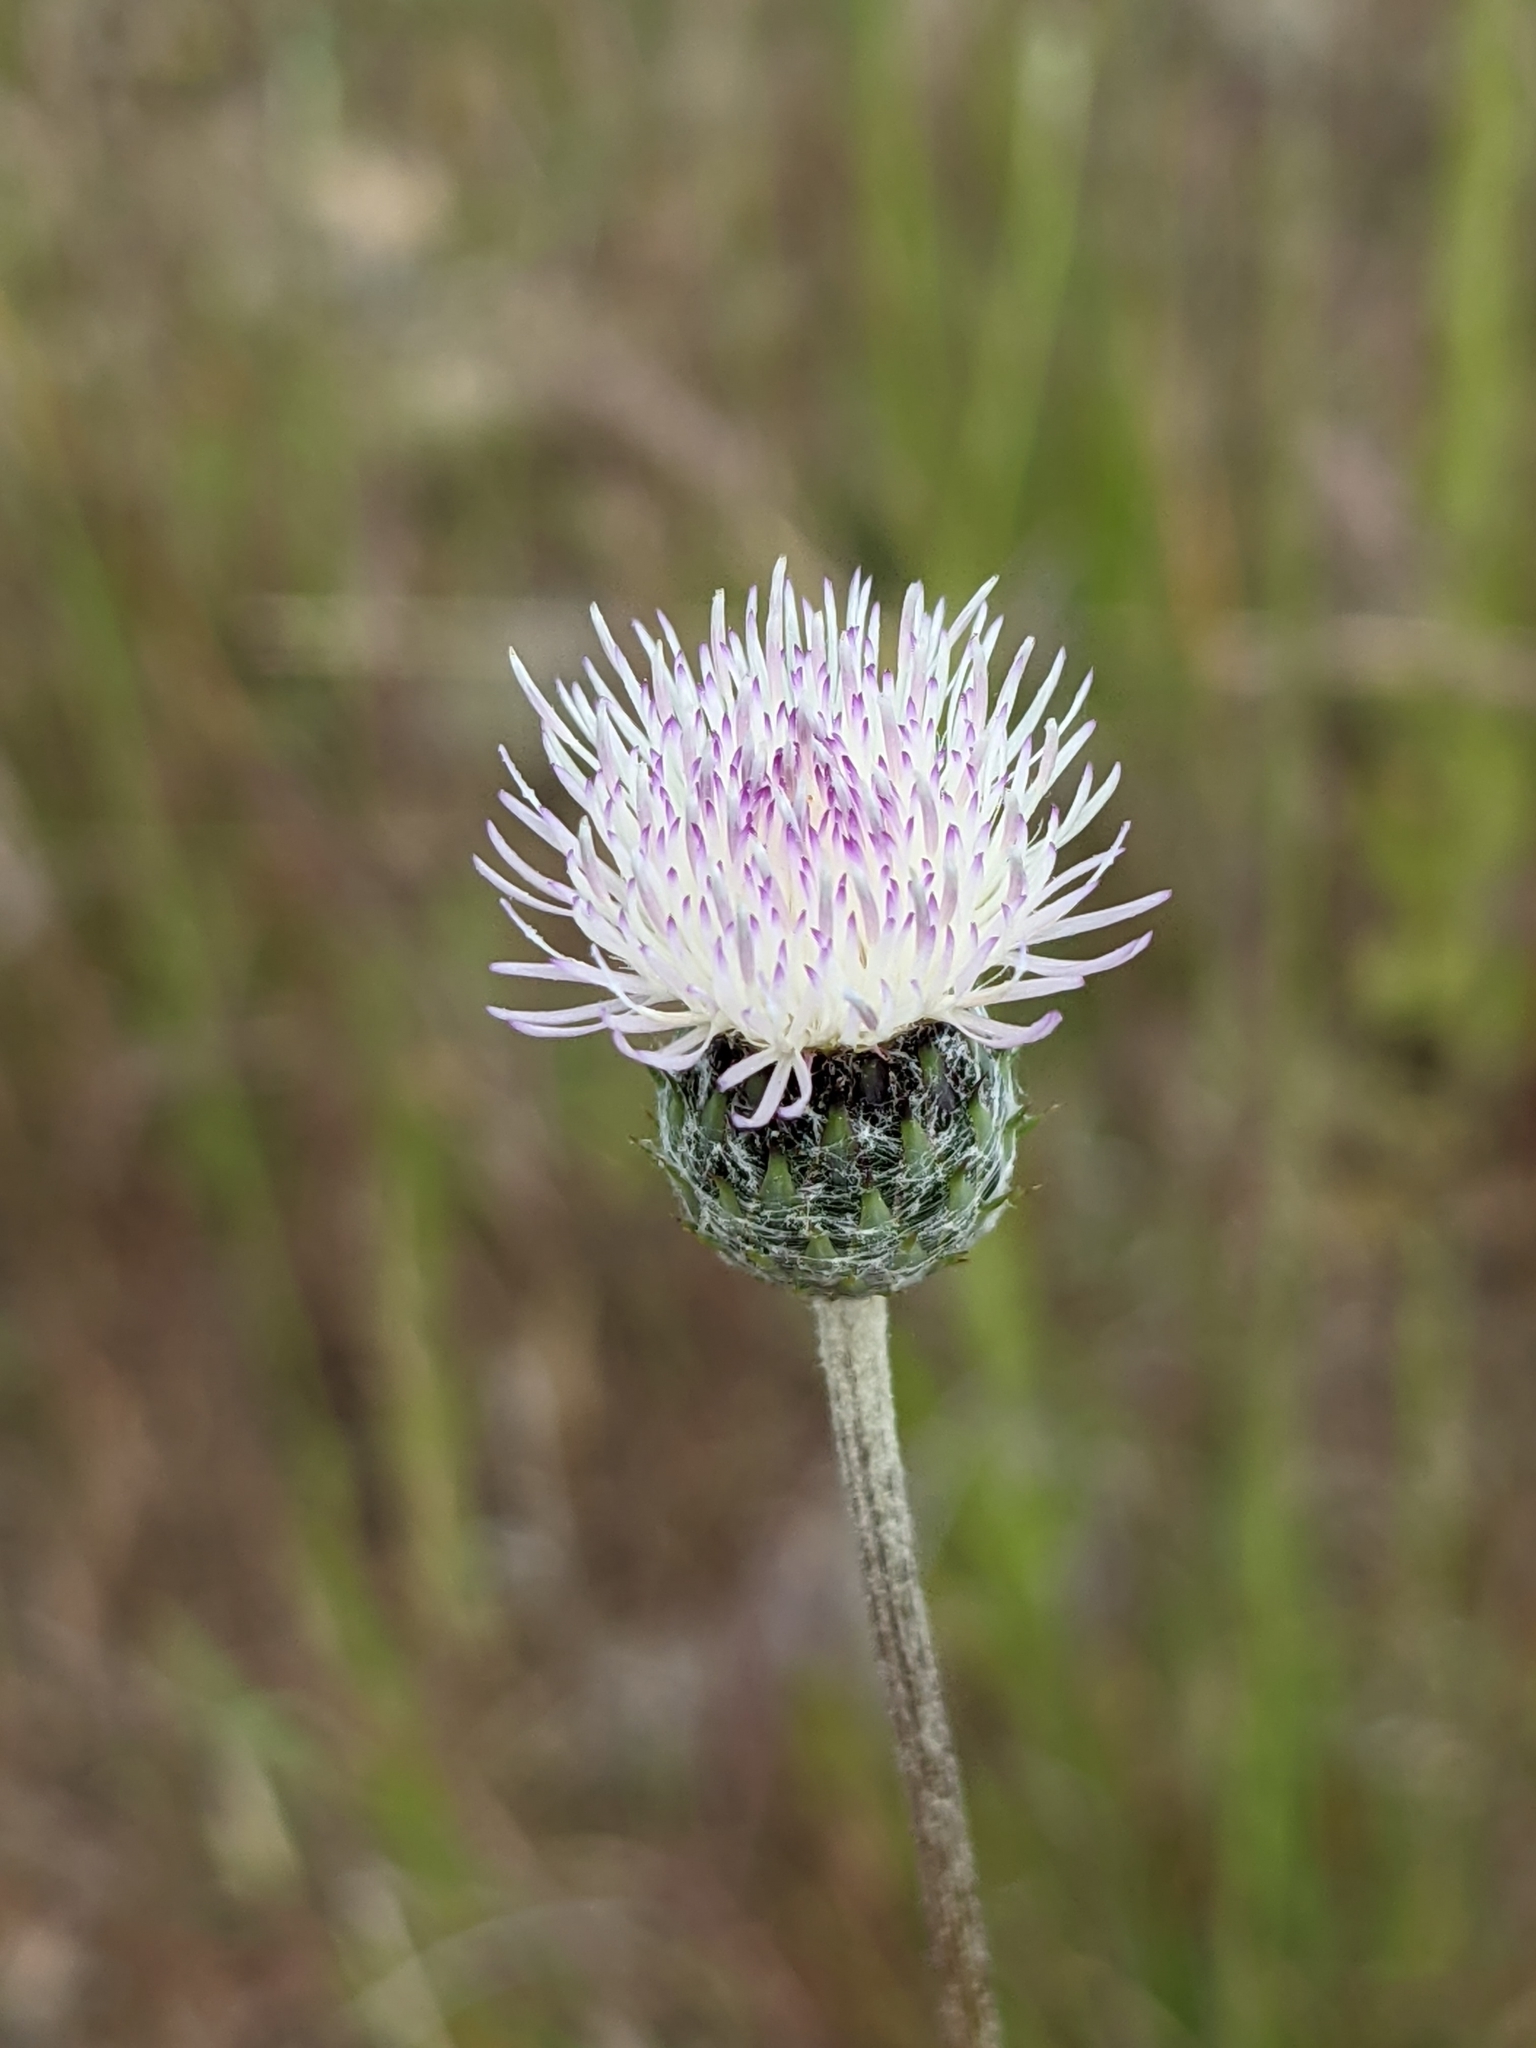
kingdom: Plantae
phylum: Tracheophyta
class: Magnoliopsida
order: Asterales
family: Asteraceae
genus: Tyrimnus
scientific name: Tyrimnus leucographus
